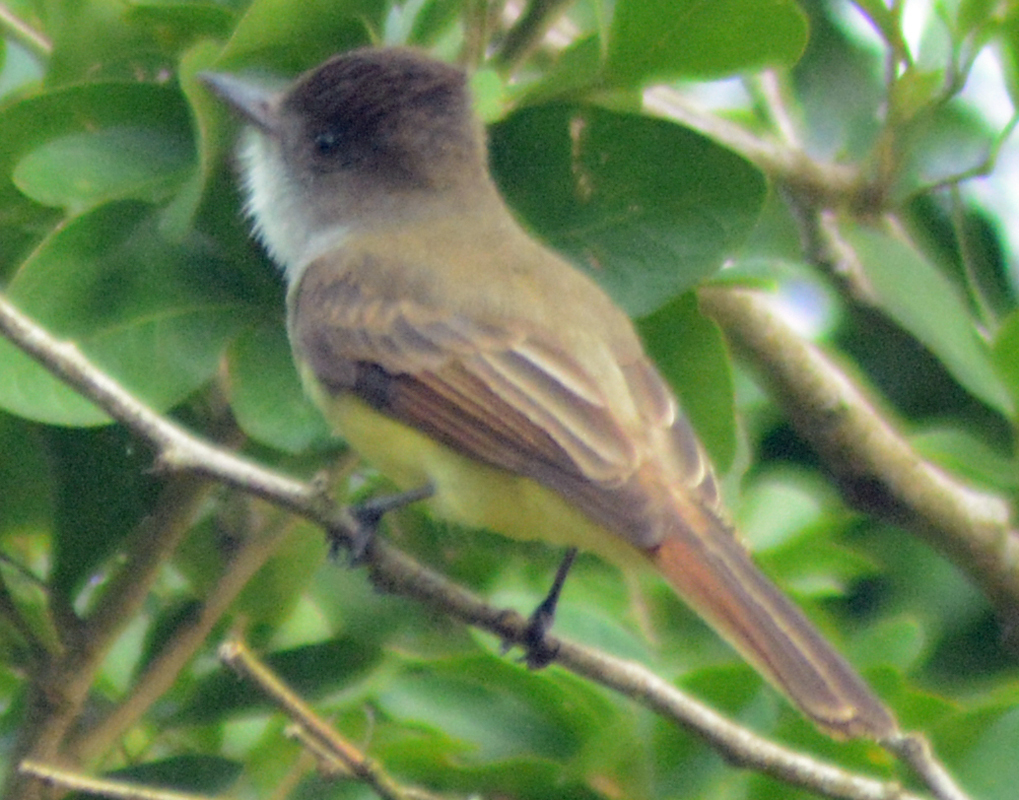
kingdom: Animalia
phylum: Chordata
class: Aves
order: Passeriformes
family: Tyrannidae
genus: Myiarchus
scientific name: Myiarchus tuberculifer
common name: Dusky-capped flycatcher
